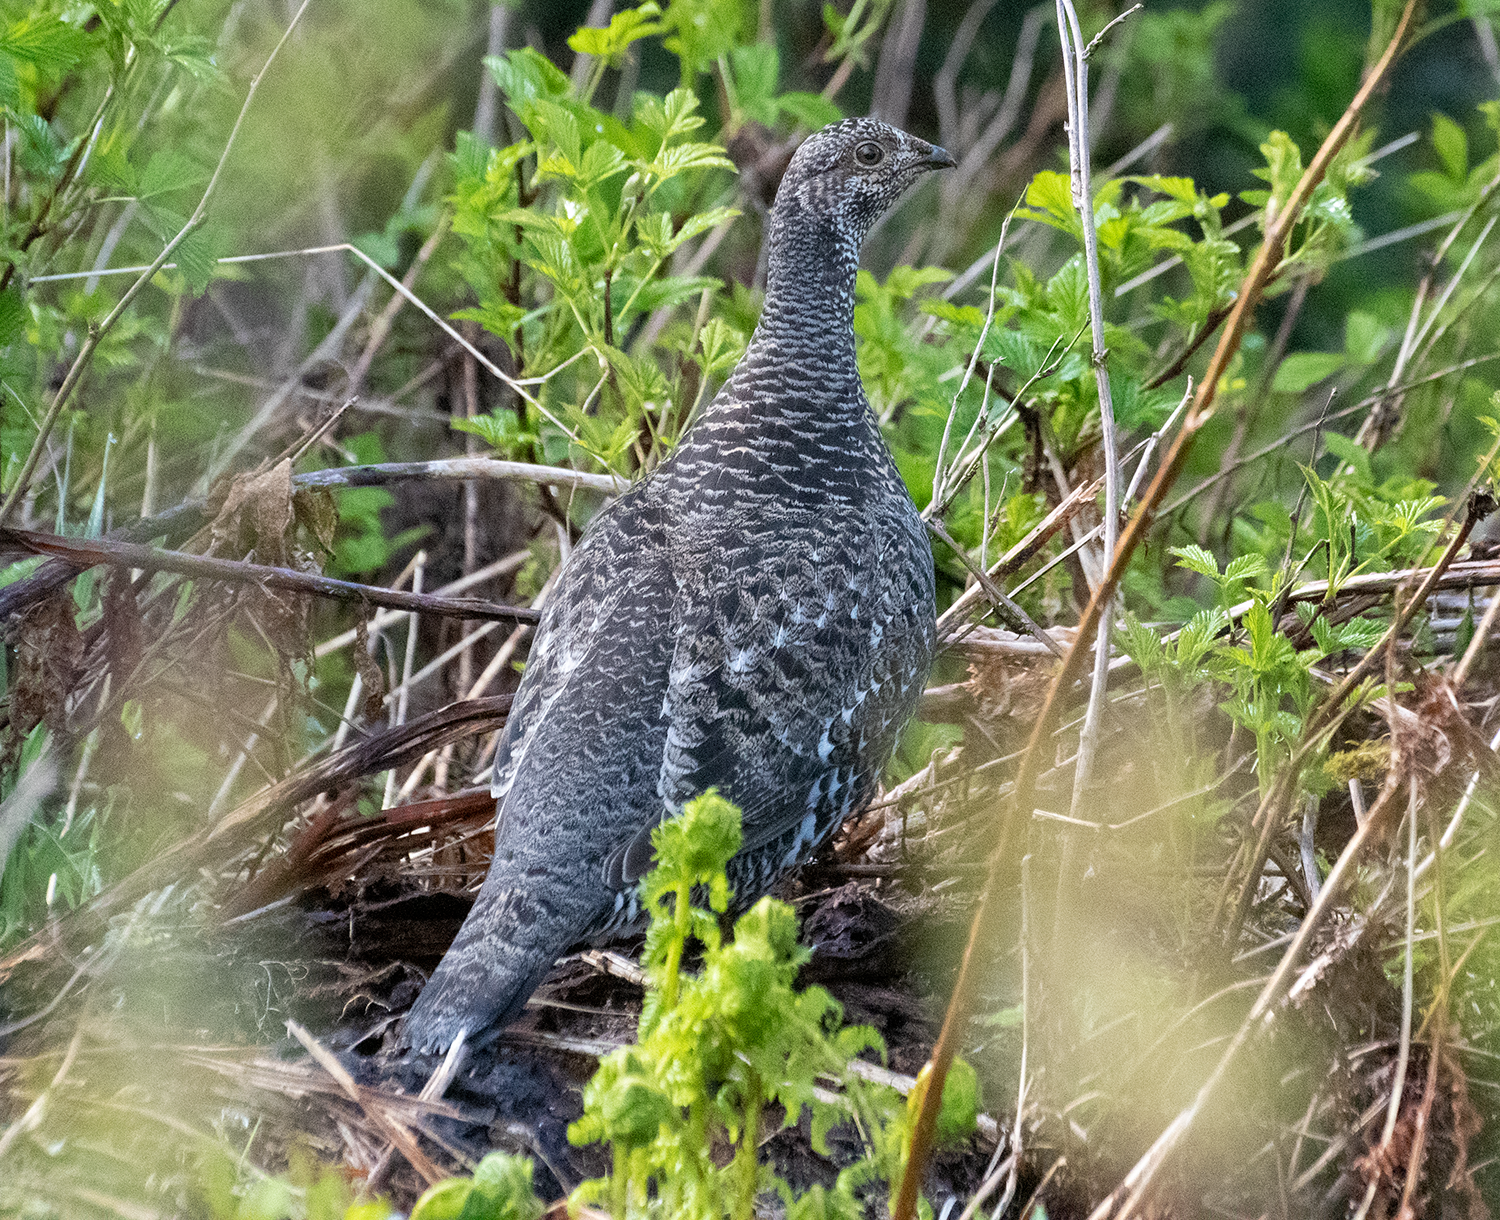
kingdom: Animalia
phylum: Chordata
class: Aves
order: Galliformes
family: Phasianidae
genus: Dendragapus
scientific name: Dendragapus fuliginosus
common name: Sooty grouse
